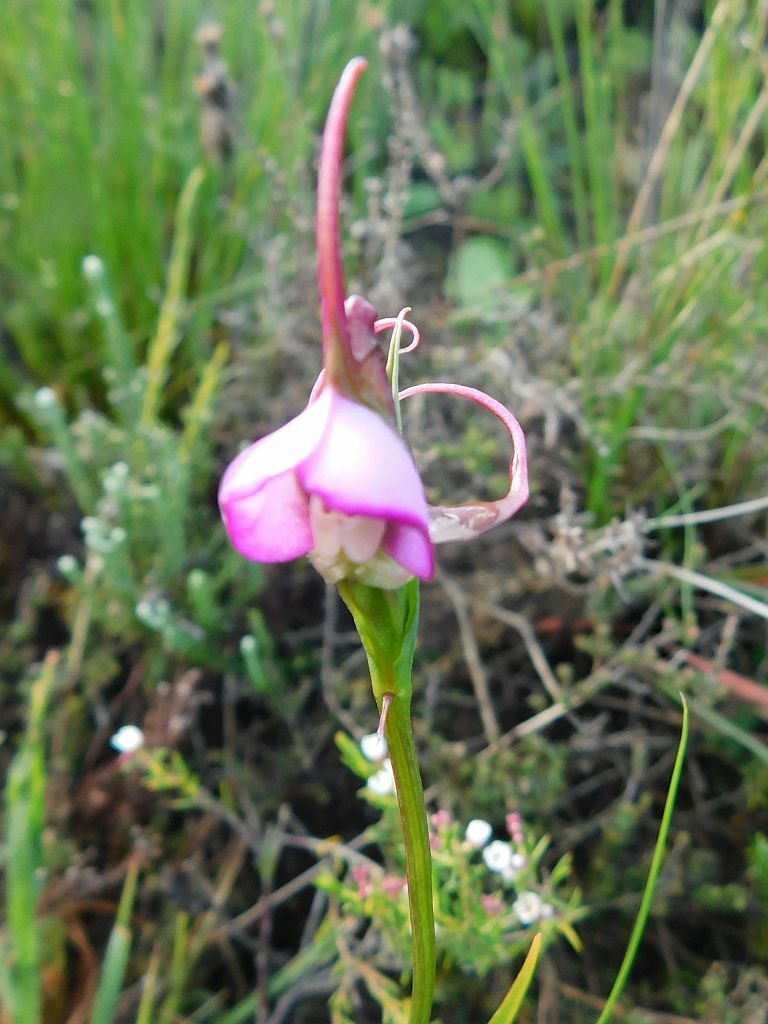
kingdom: Plantae
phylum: Tracheophyta
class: Liliopsida
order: Asparagales
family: Orchidaceae
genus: Disperis
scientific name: Disperis capensis
